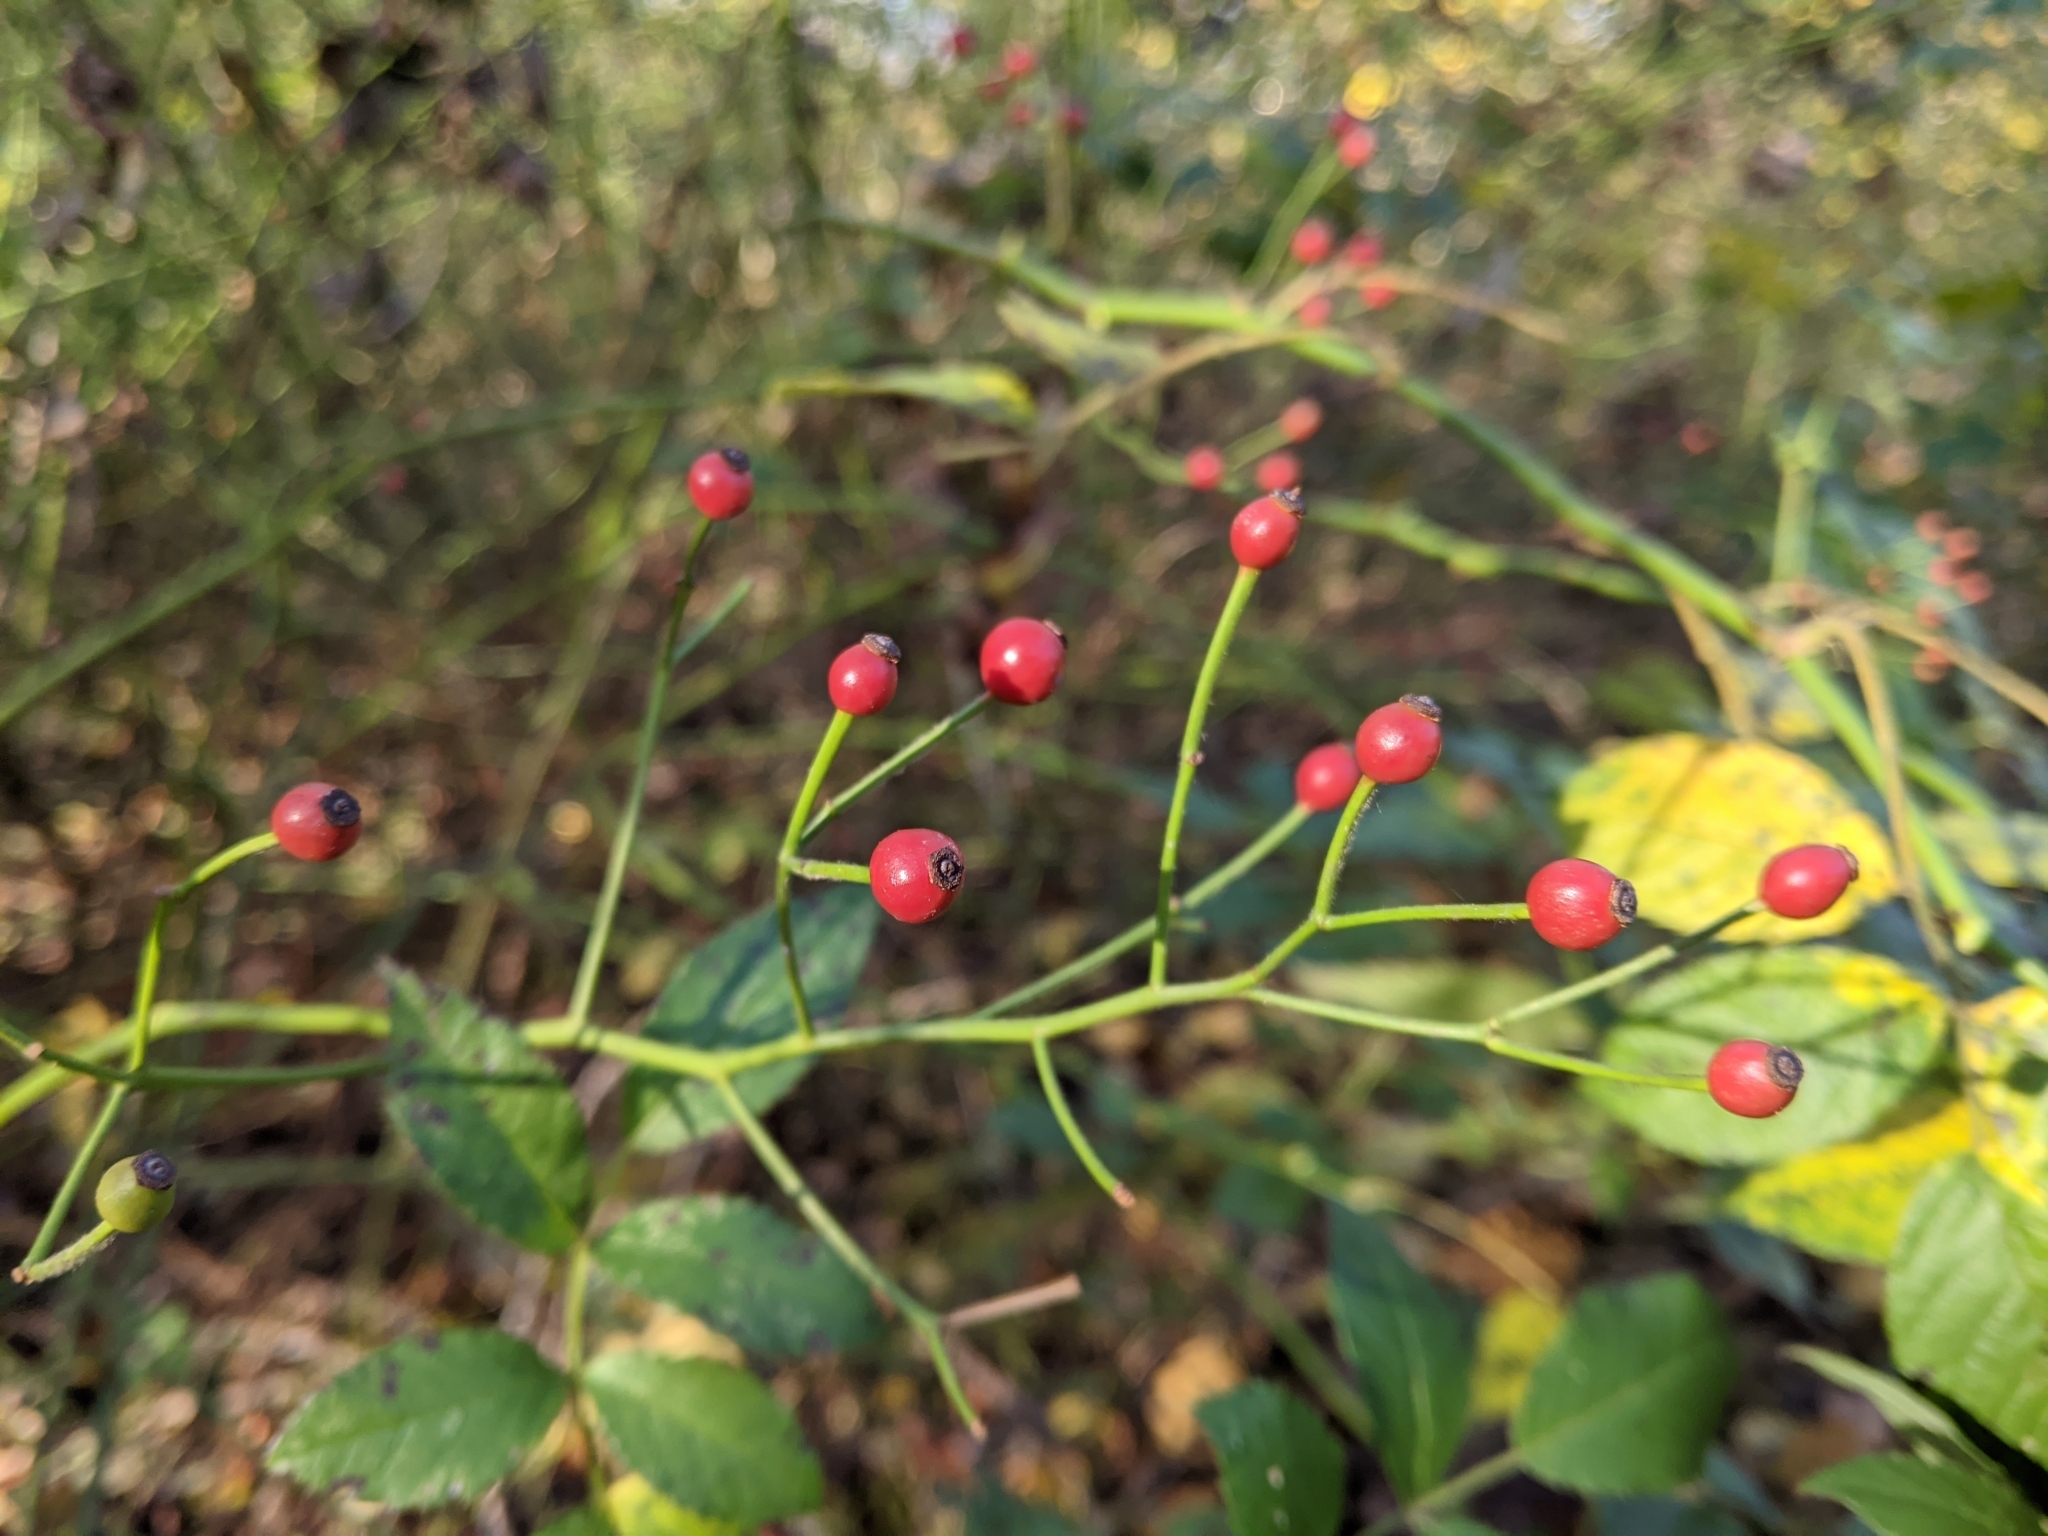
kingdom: Plantae
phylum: Tracheophyta
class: Magnoliopsida
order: Rosales
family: Rosaceae
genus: Rosa
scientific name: Rosa multiflora
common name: Multiflora rose
